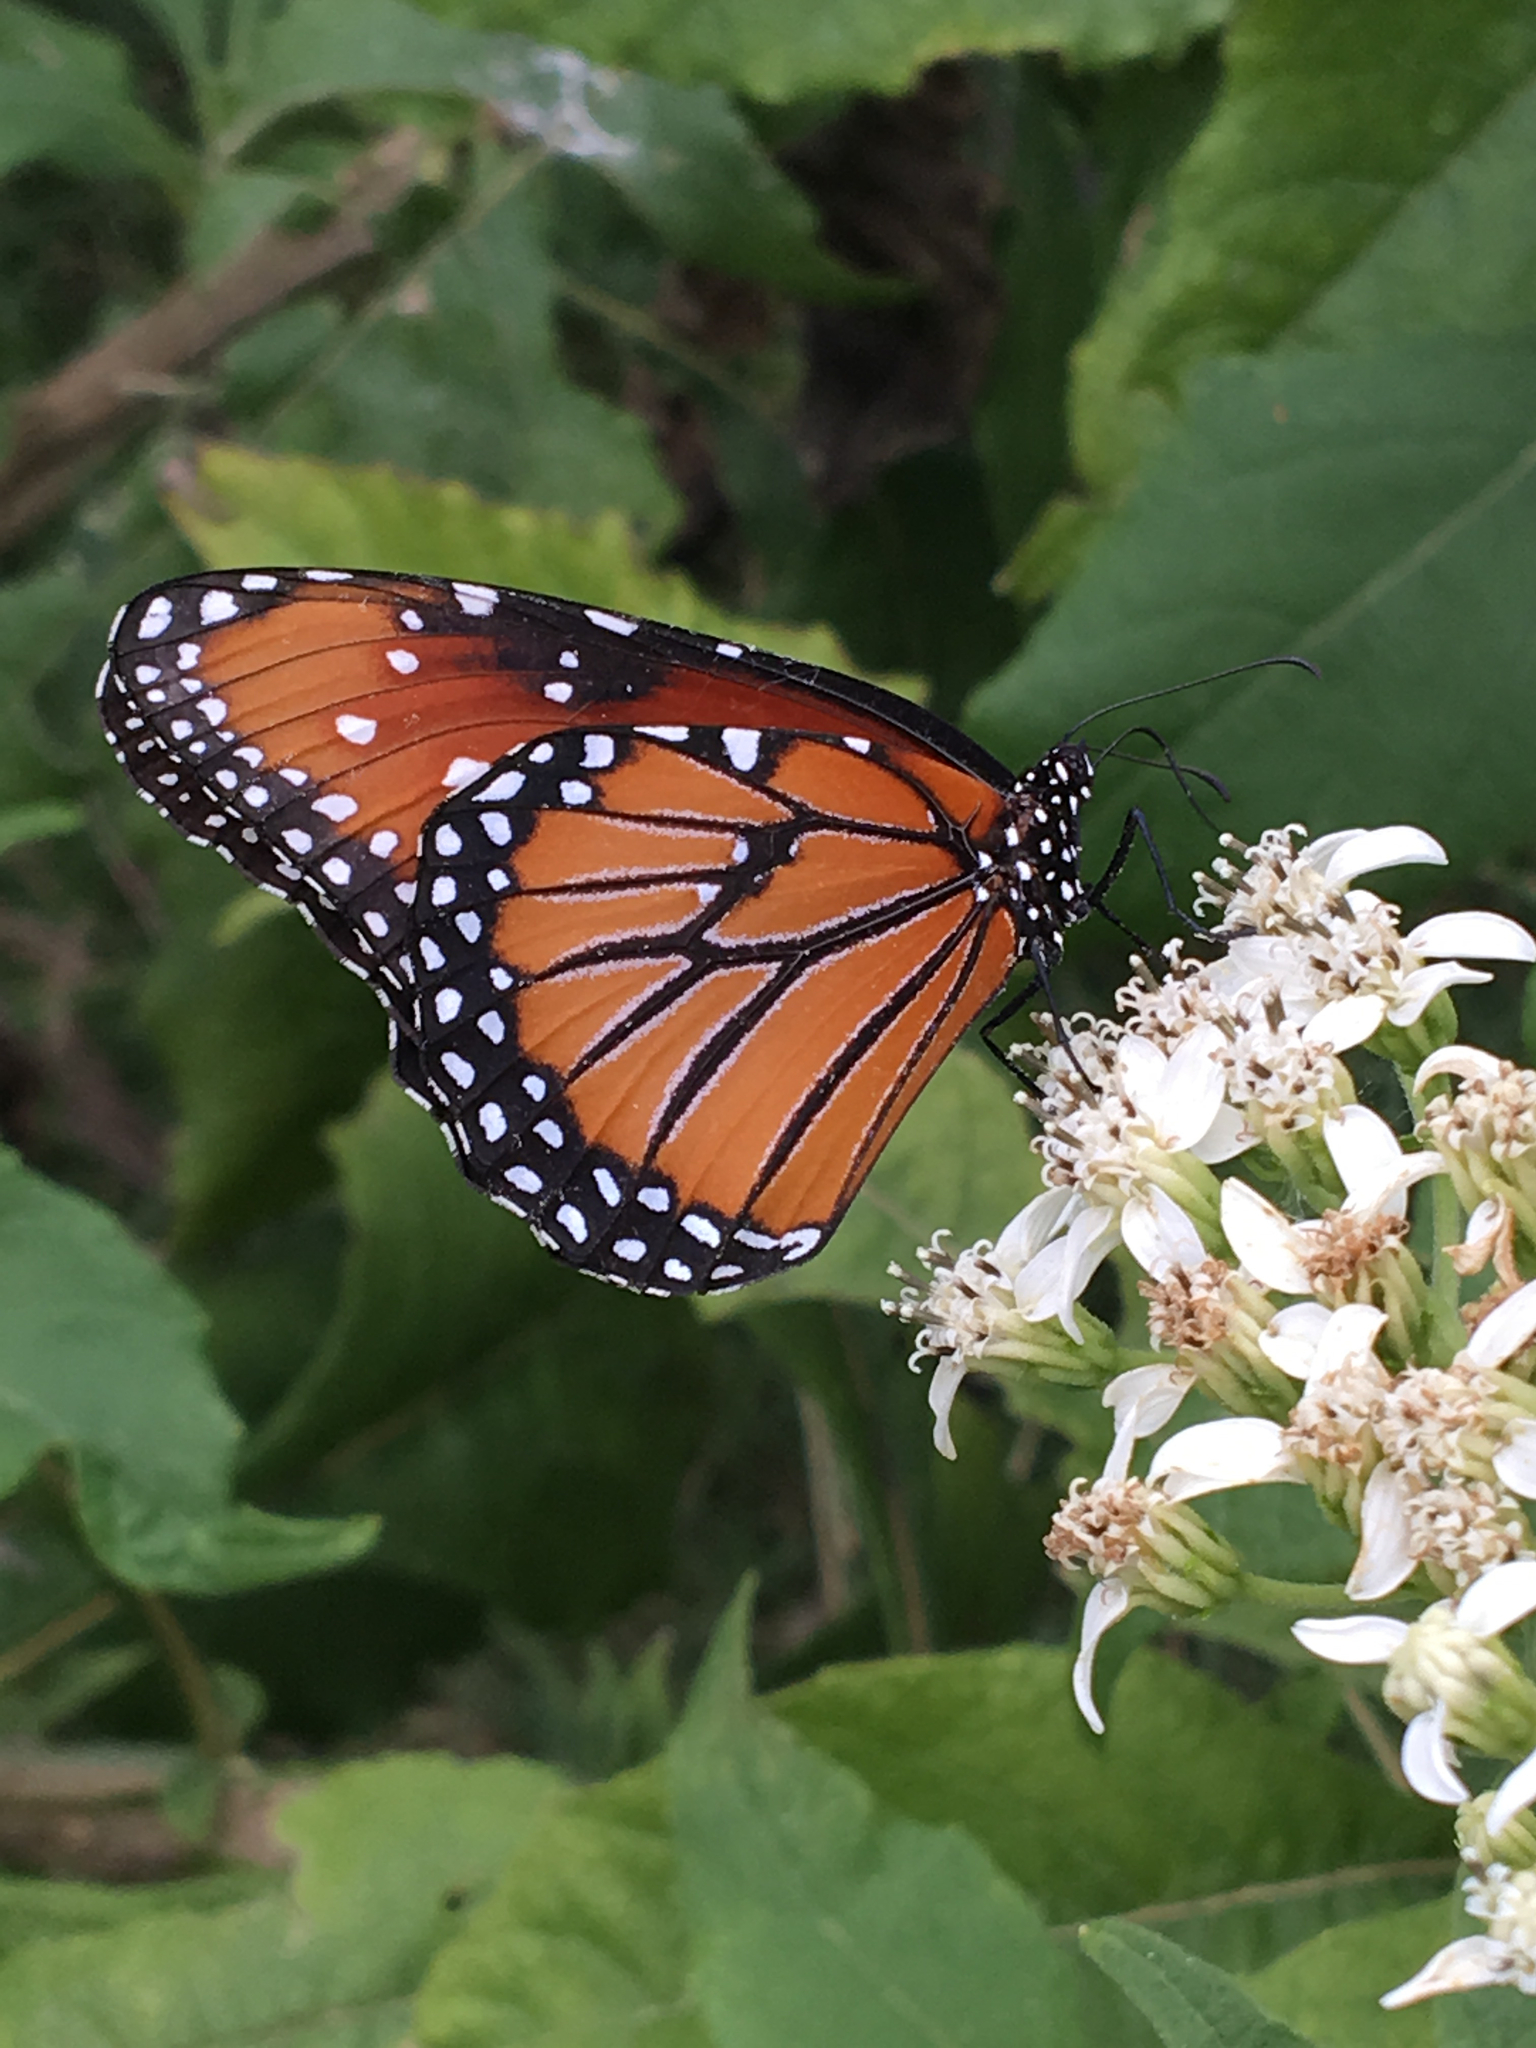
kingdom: Animalia
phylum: Arthropoda
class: Insecta
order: Lepidoptera
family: Nymphalidae
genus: Danaus
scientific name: Danaus gilippus
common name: Queen
